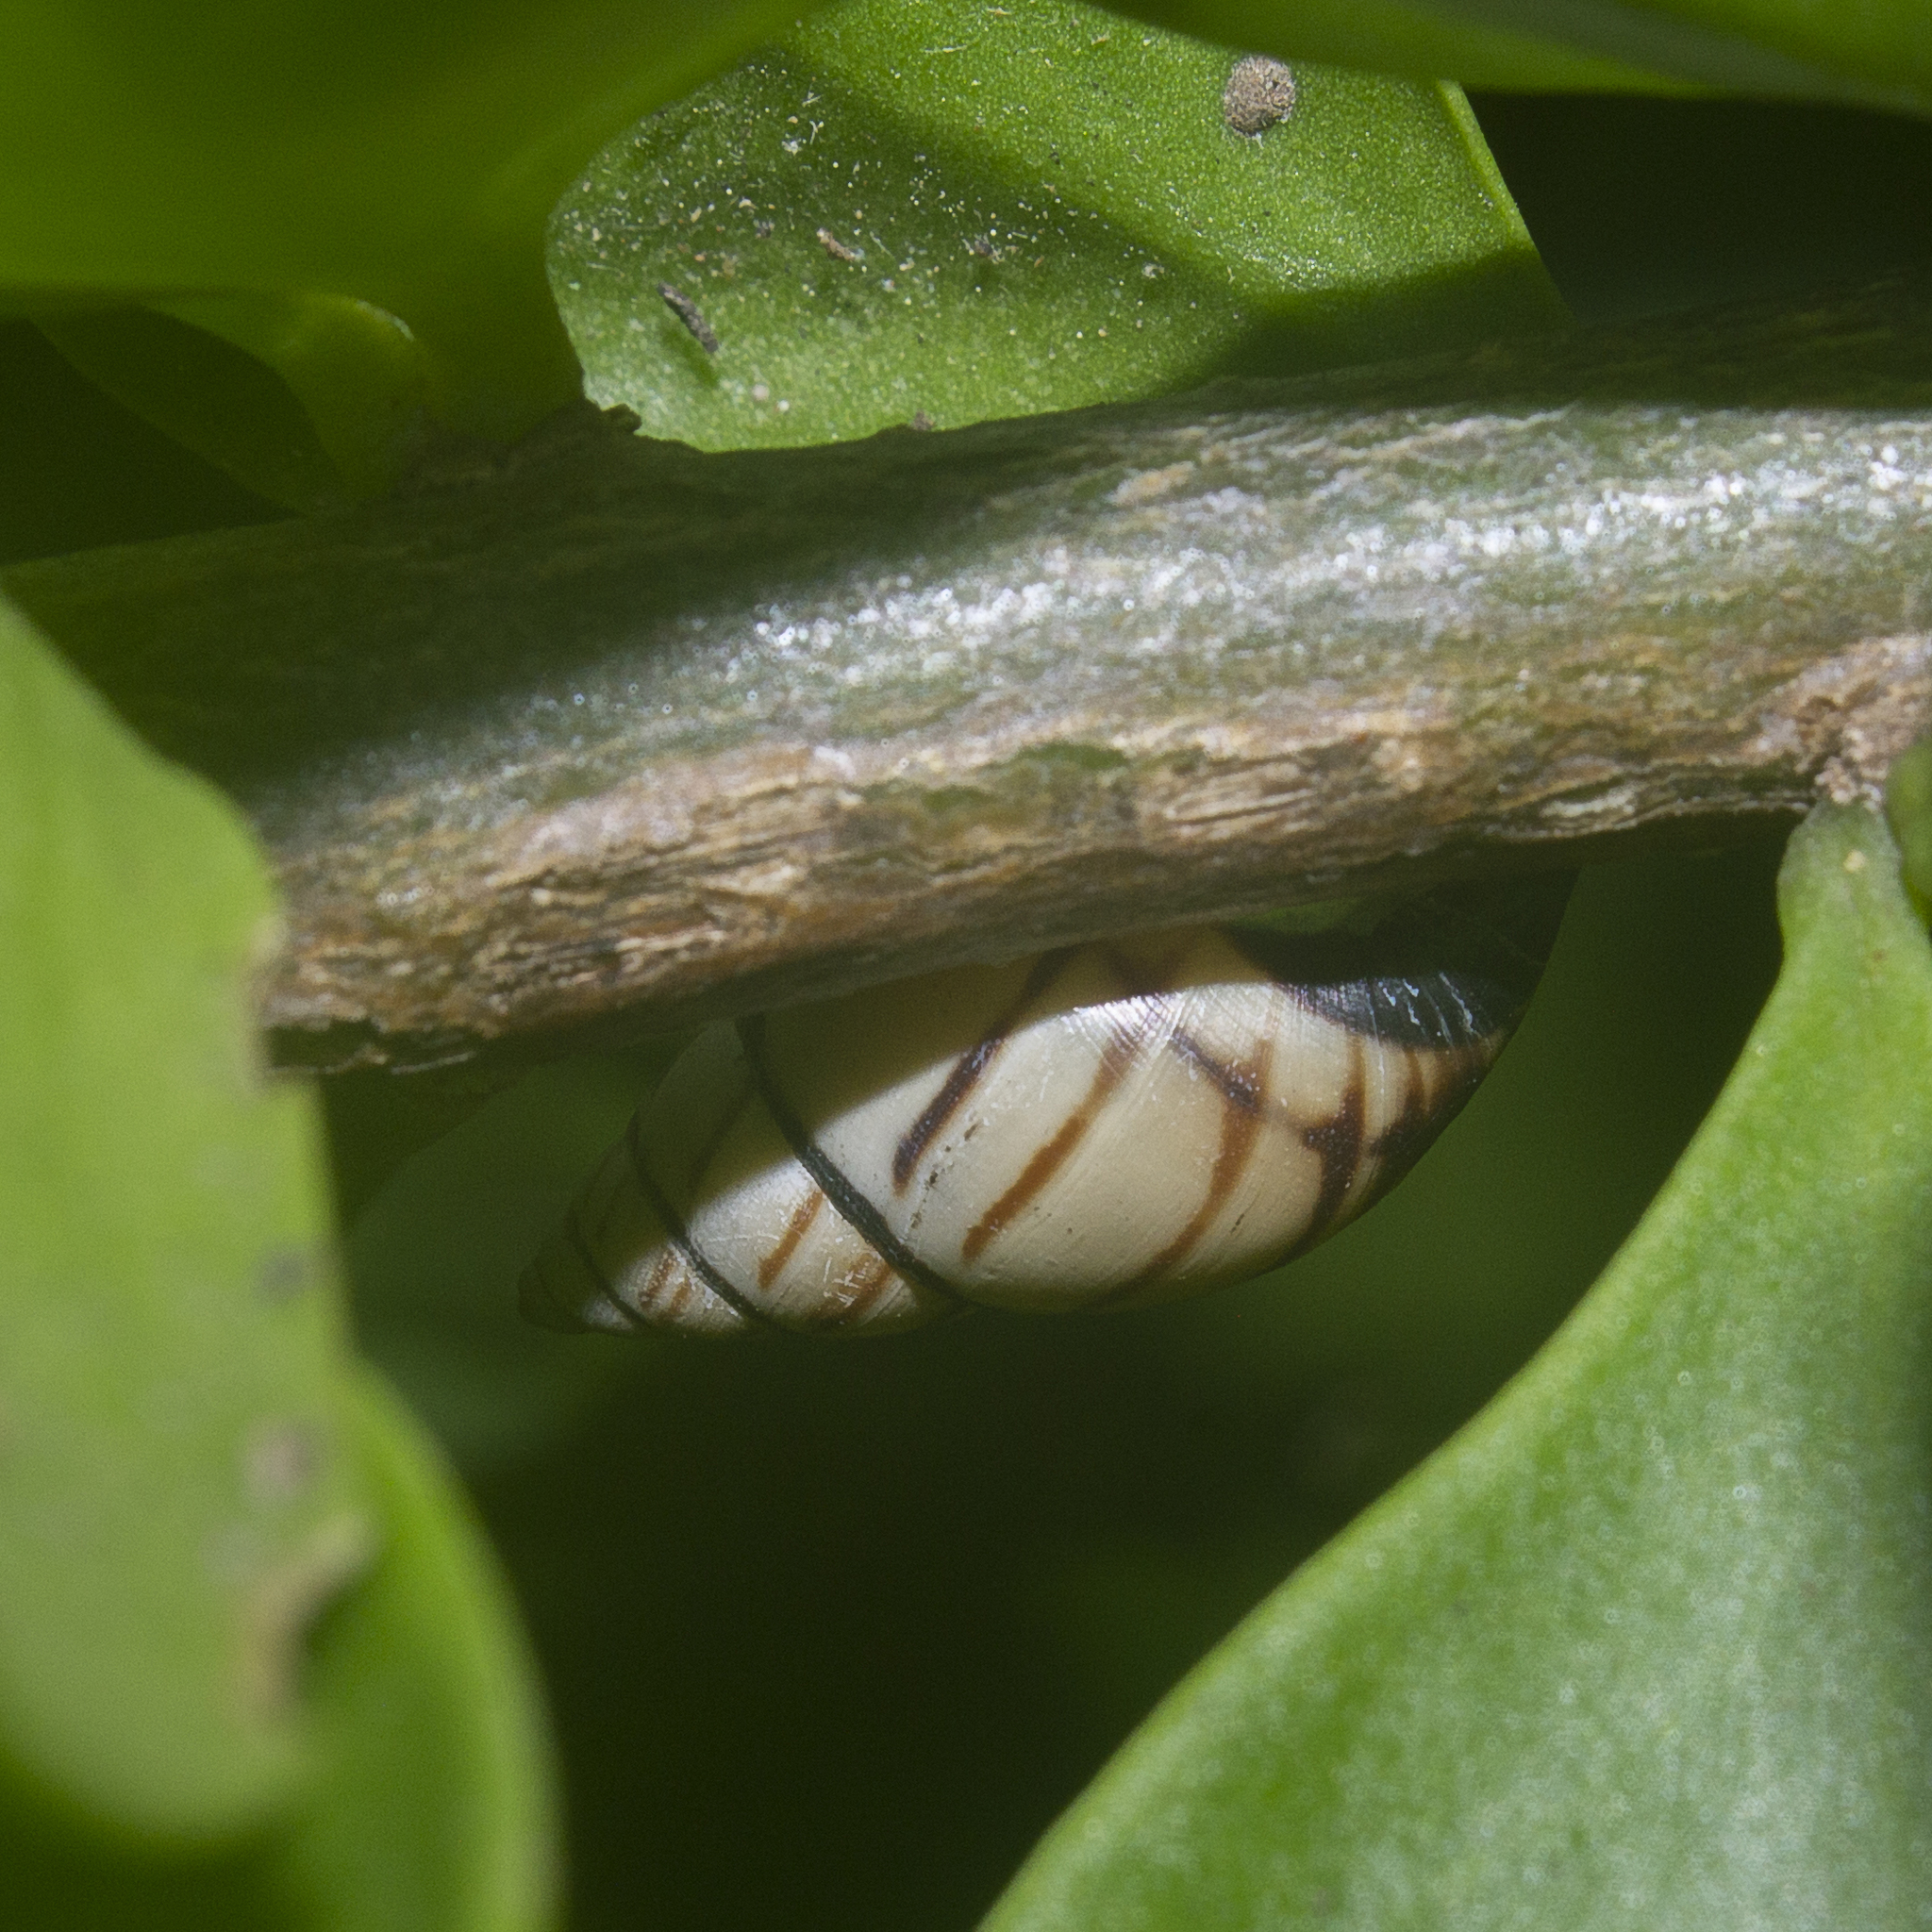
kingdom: Animalia
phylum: Mollusca
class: Gastropoda
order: Stylommatophora
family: Bulimulidae
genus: Drymaeus
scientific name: Drymaeus
